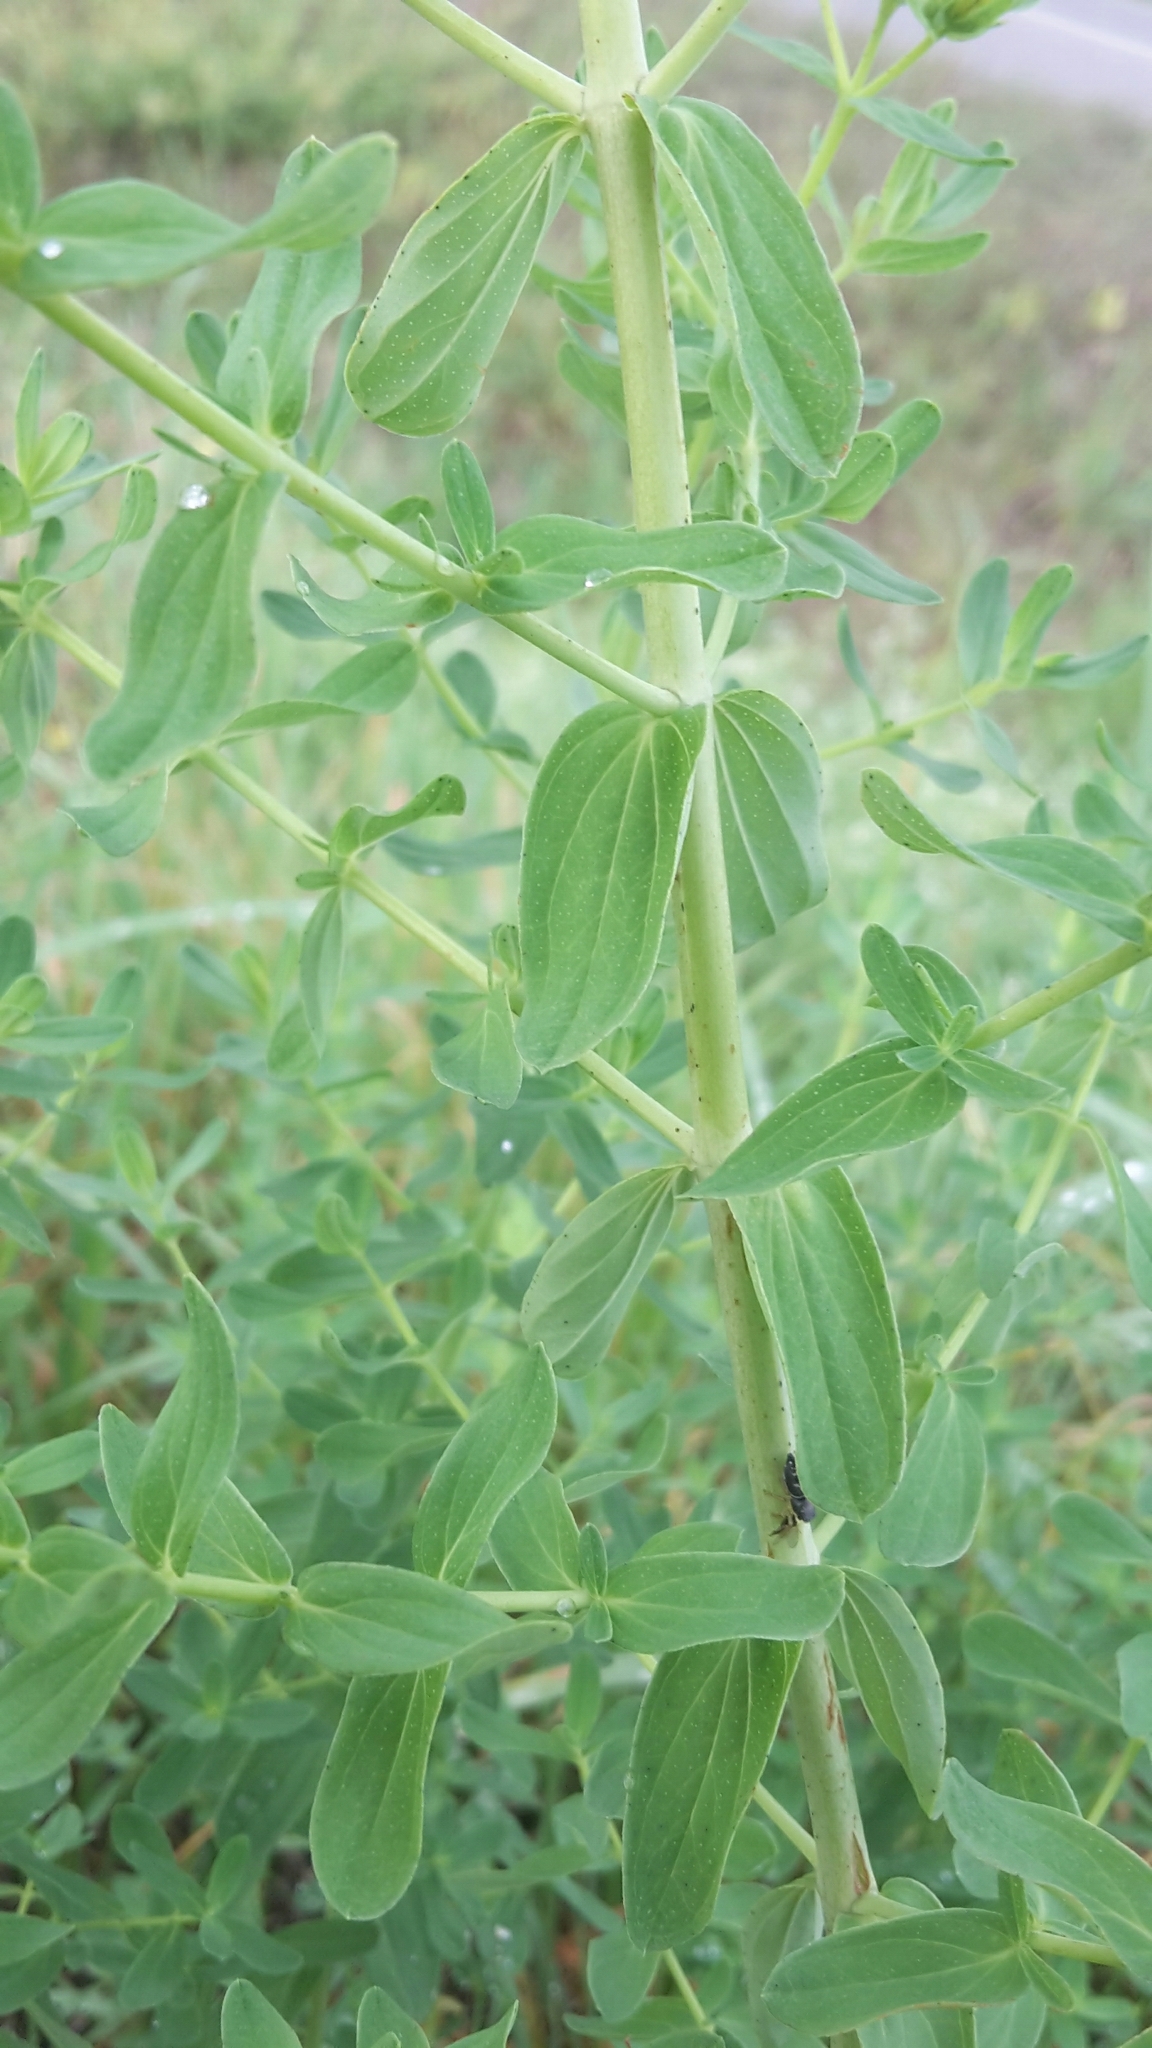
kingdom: Plantae
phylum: Tracheophyta
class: Magnoliopsida
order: Malpighiales
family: Hypericaceae
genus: Hypericum
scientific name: Hypericum perforatum
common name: Common st. johnswort
